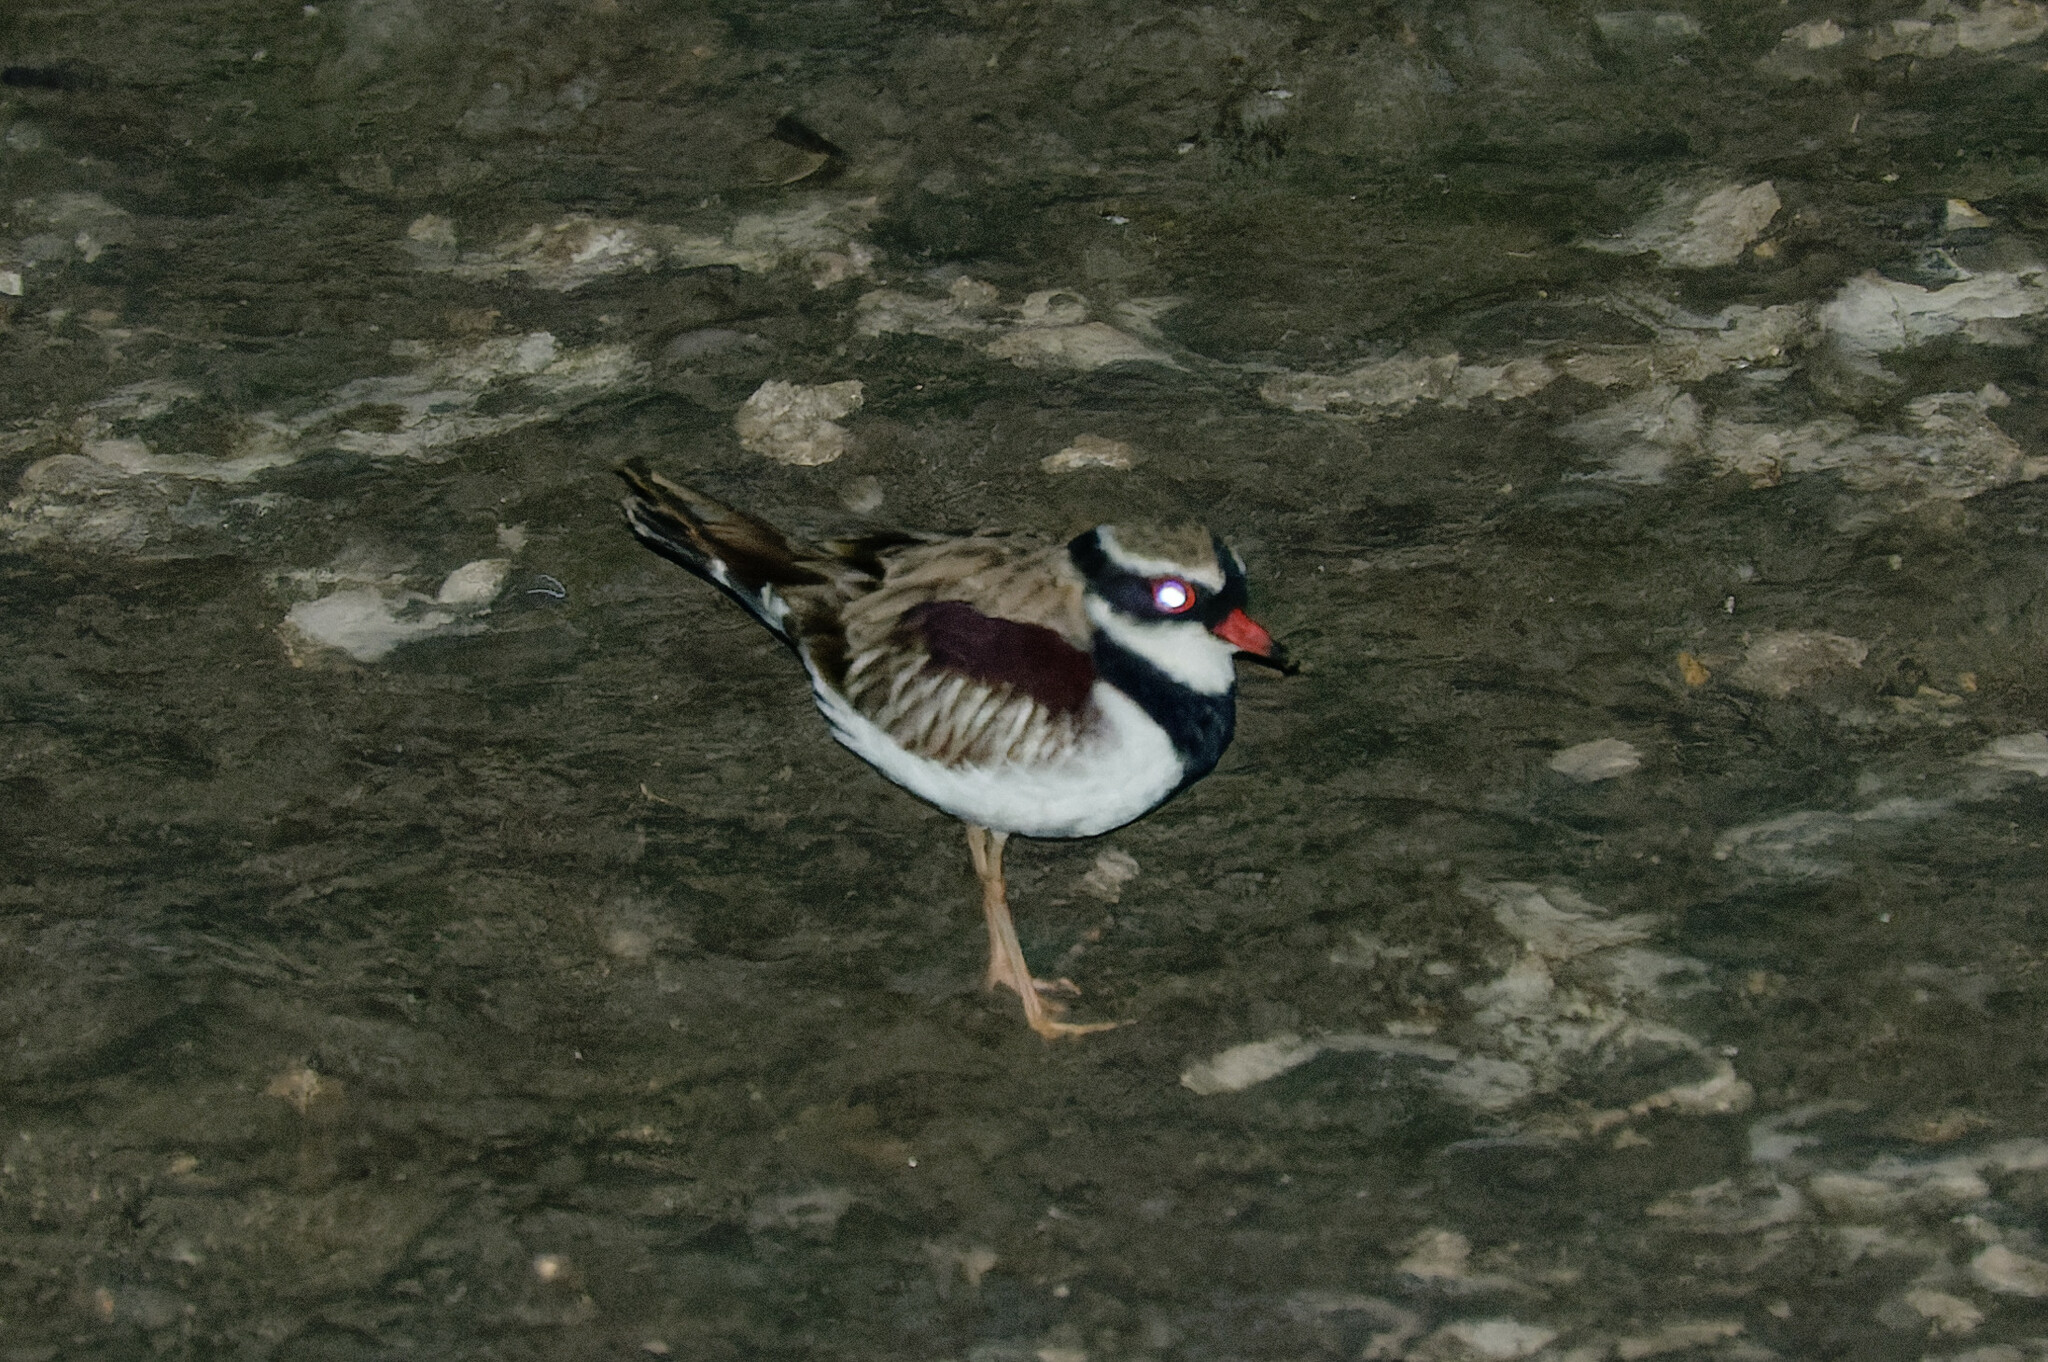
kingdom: Animalia
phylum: Chordata
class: Aves
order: Charadriiformes
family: Charadriidae
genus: Elseyornis
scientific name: Elseyornis melanops
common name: Black-fronted dotterel
